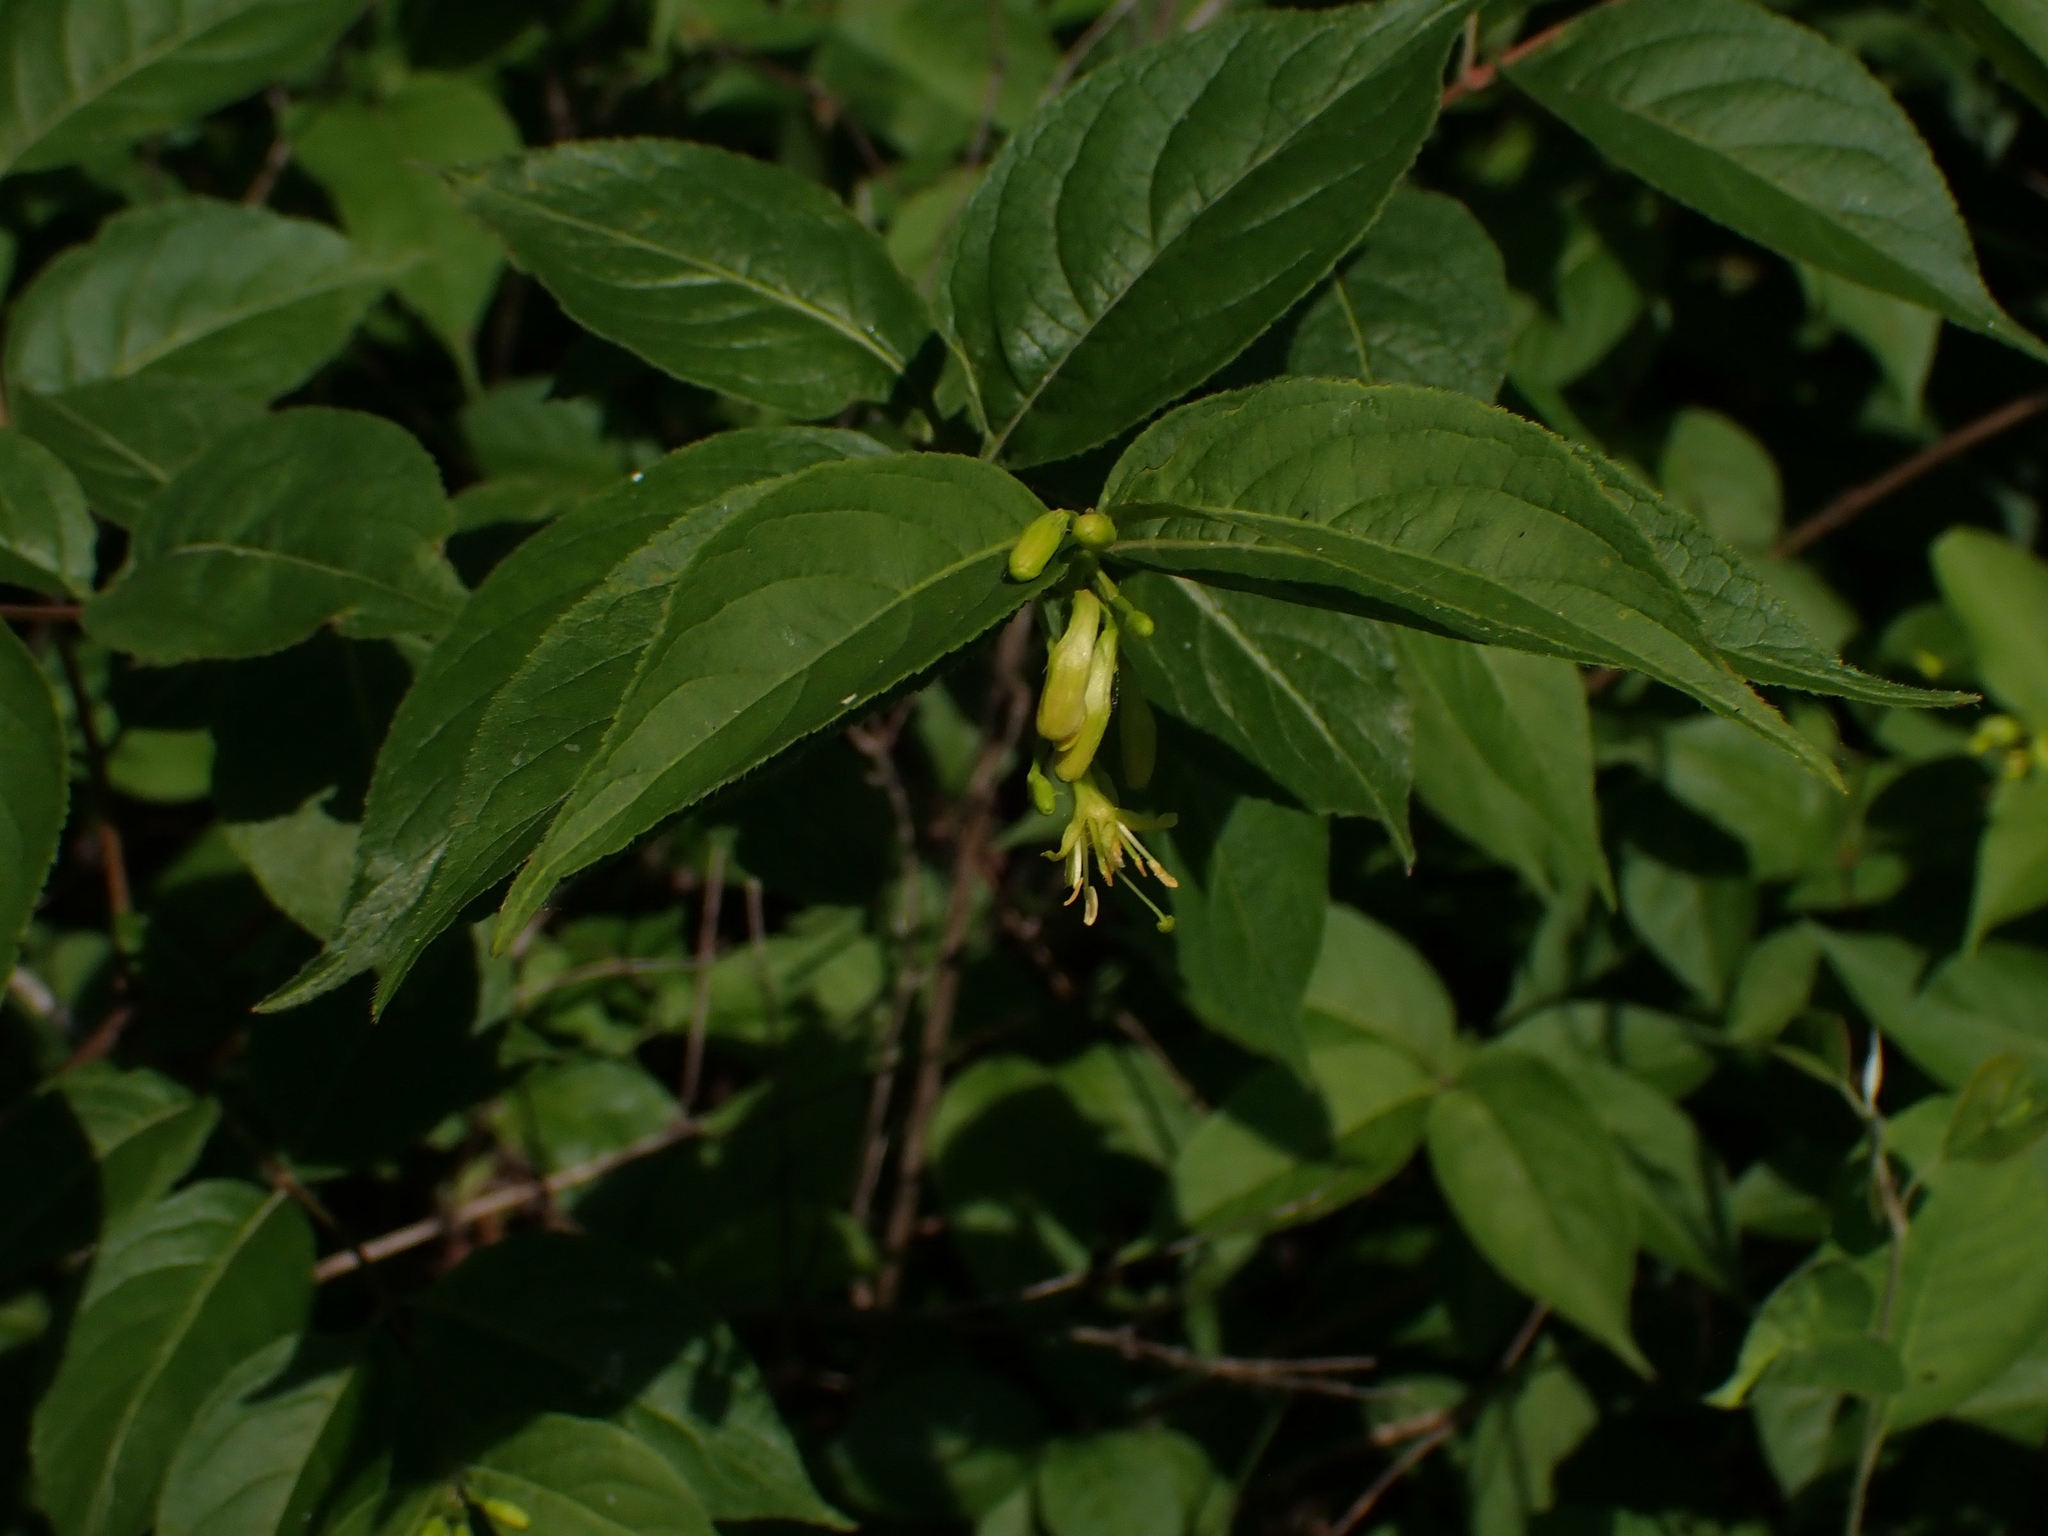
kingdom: Plantae
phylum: Tracheophyta
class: Magnoliopsida
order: Dipsacales
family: Caprifoliaceae
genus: Diervilla
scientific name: Diervilla lonicera
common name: Bush-honeysuckle
